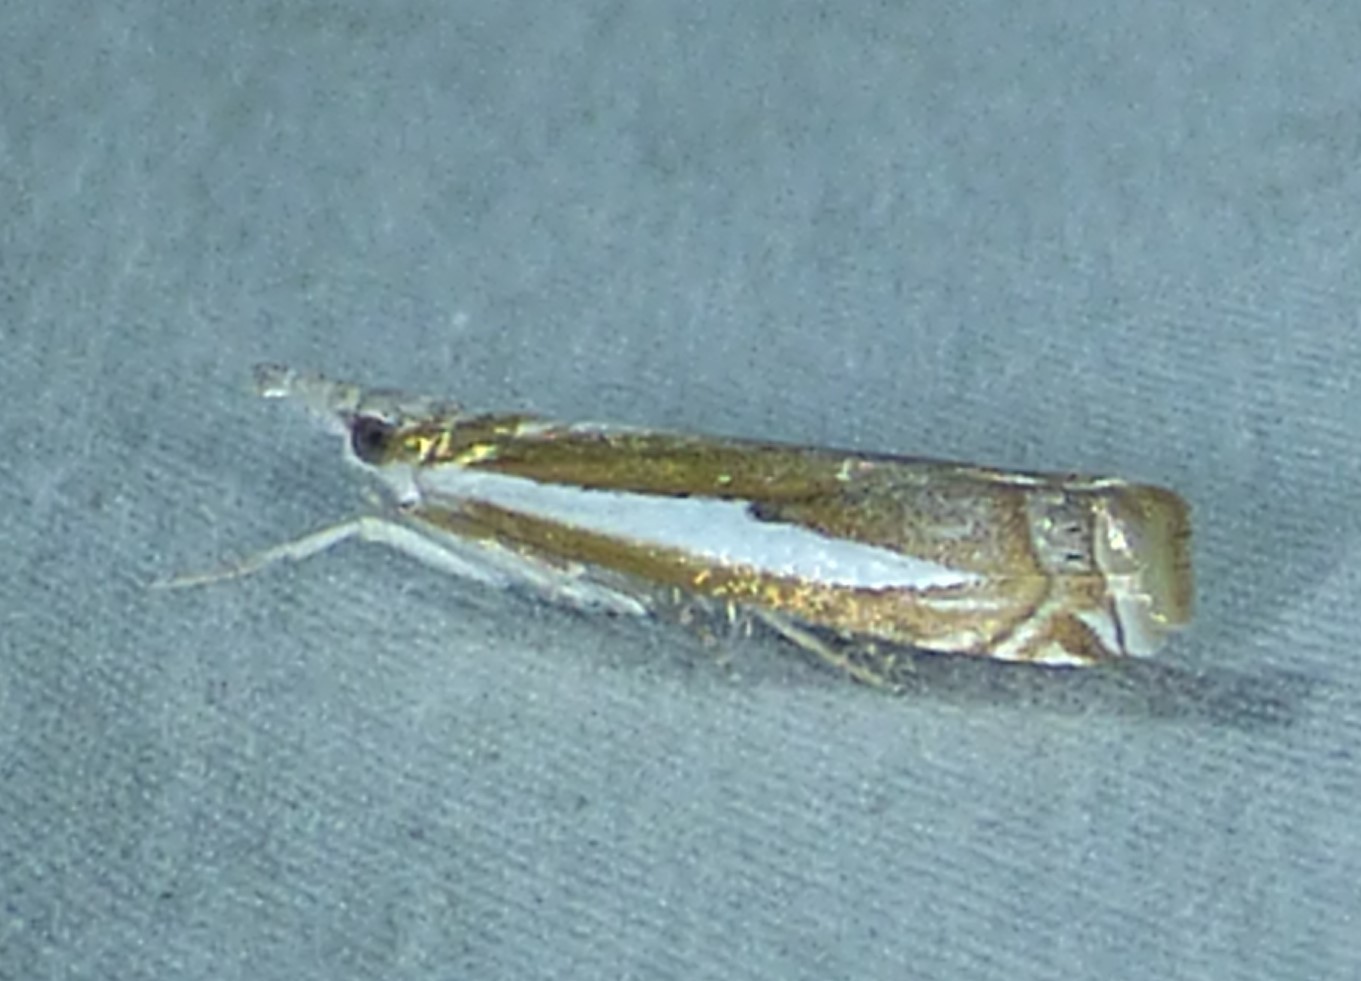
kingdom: Animalia
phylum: Arthropoda
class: Insecta
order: Lepidoptera
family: Crambidae
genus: Crambus
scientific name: Crambus praefectellus
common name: Common grass-veneer
